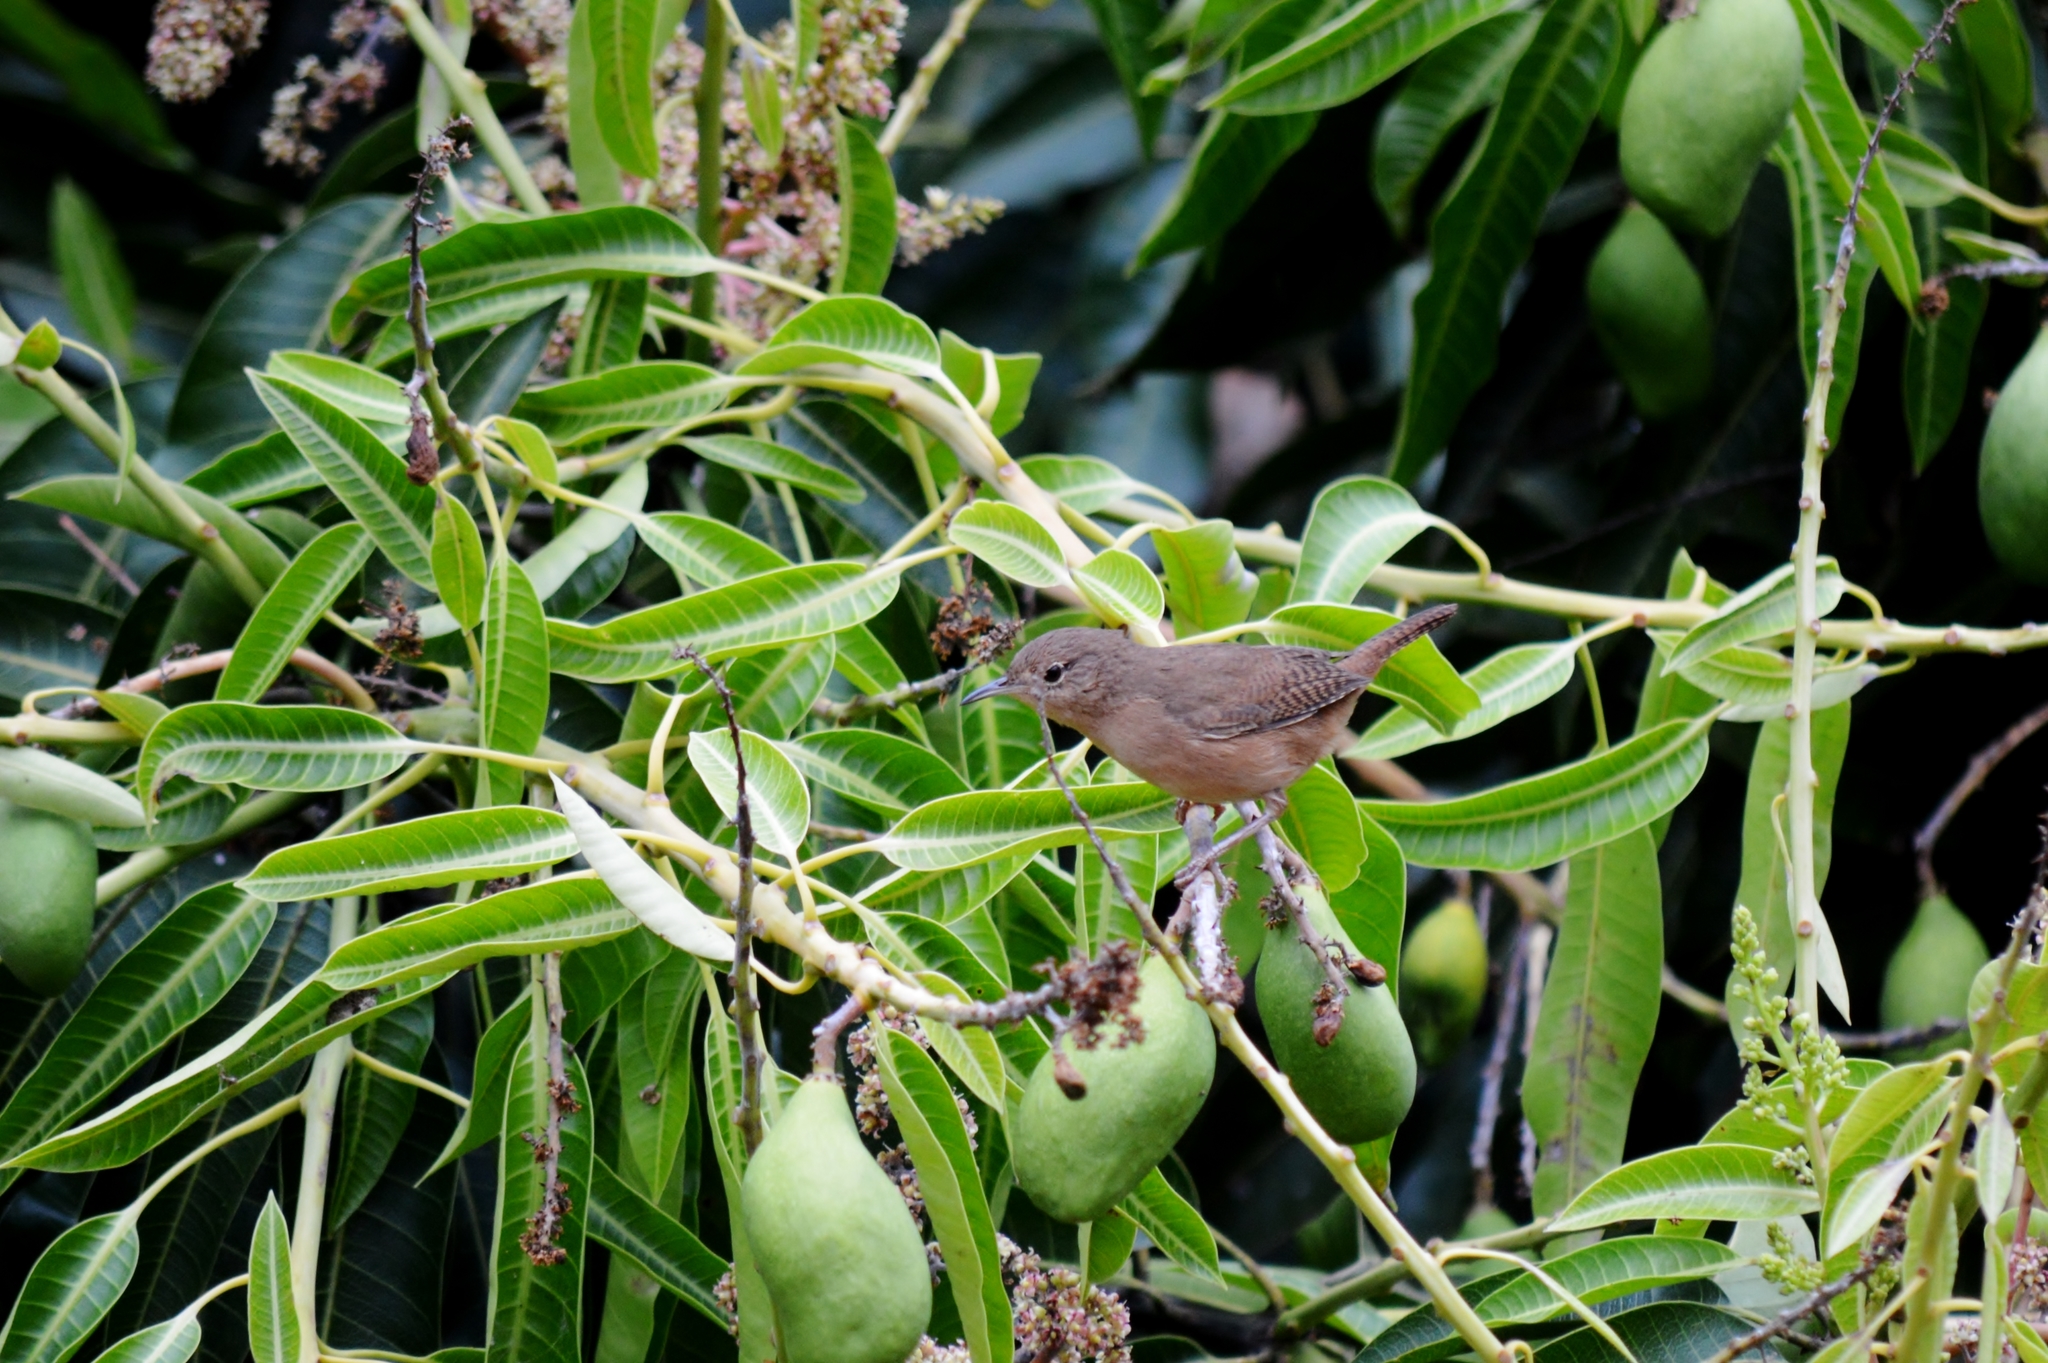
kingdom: Animalia
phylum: Chordata
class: Aves
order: Passeriformes
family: Troglodytidae
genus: Troglodytes
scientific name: Troglodytes aedon
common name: House wren
